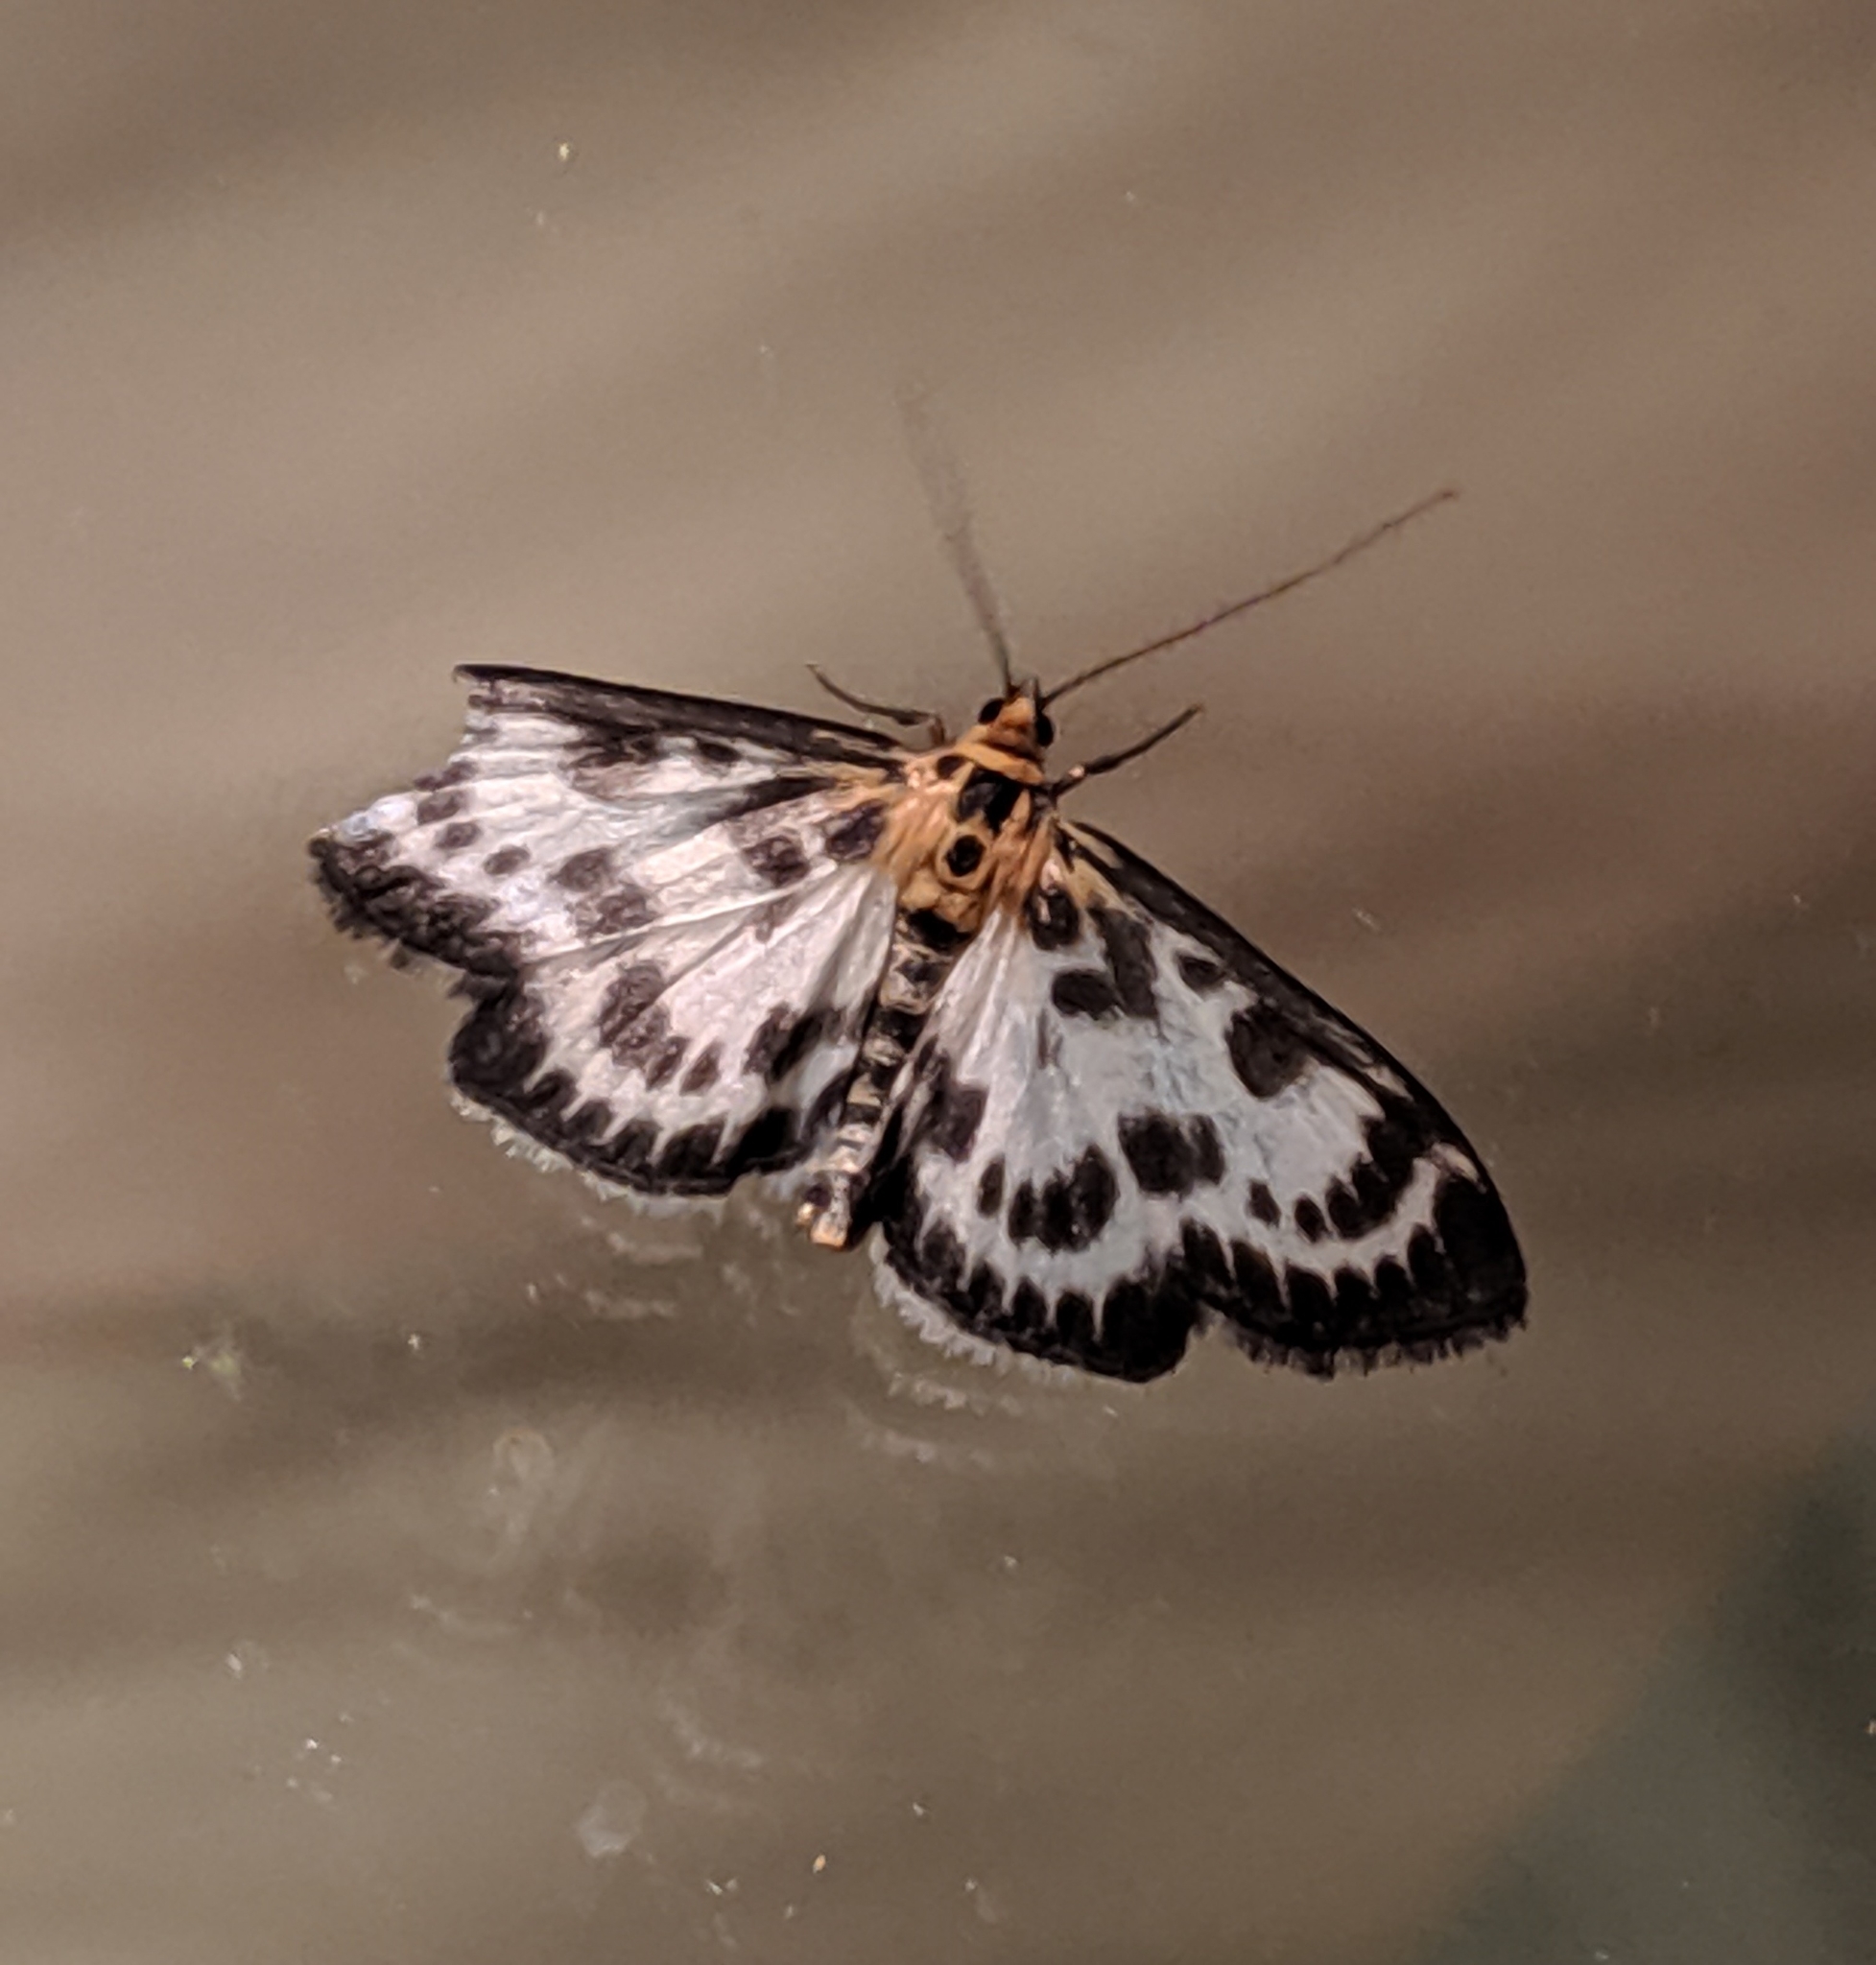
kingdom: Animalia
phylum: Arthropoda
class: Insecta
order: Lepidoptera
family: Crambidae
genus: Anania
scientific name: Anania hortulata
